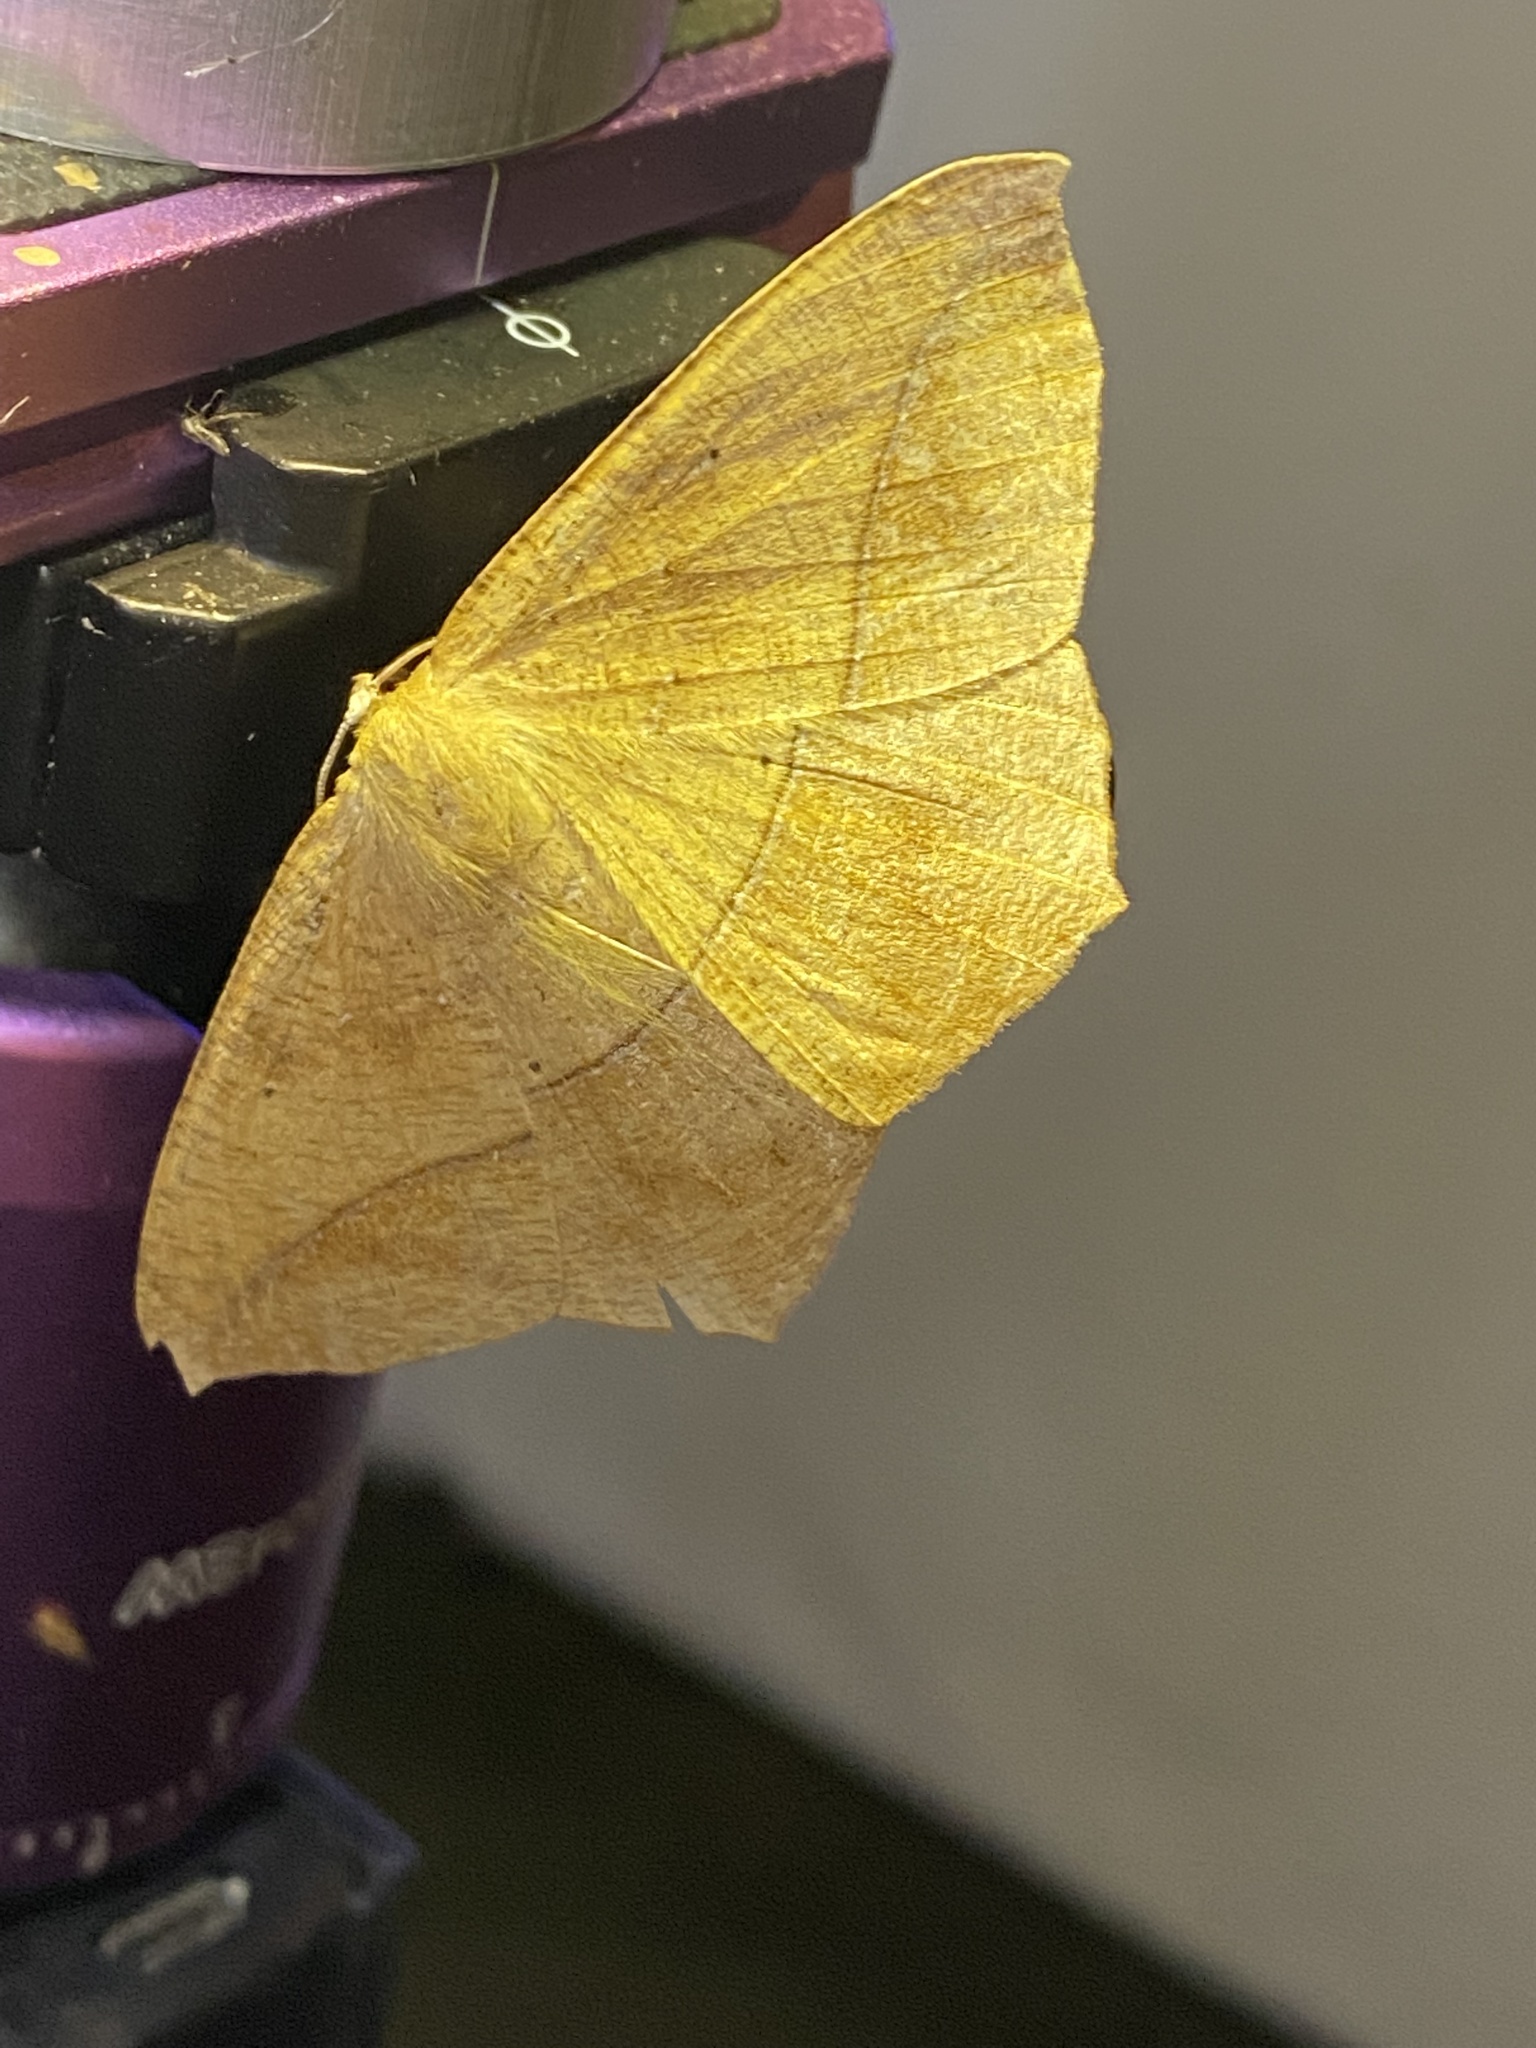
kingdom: Animalia
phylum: Arthropoda
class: Insecta
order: Lepidoptera
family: Geometridae
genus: Prochoerodes
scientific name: Prochoerodes lineola
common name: Large maple spanworm
